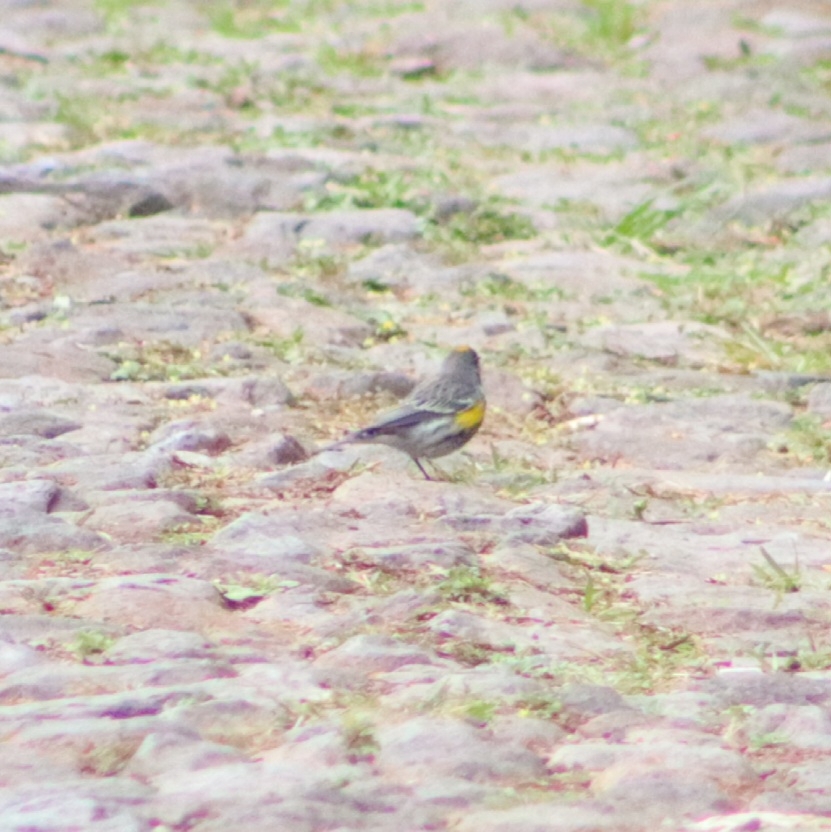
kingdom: Animalia
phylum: Chordata
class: Aves
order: Passeriformes
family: Parulidae
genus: Setophaga
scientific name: Setophaga auduboni
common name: Audubon's warbler
